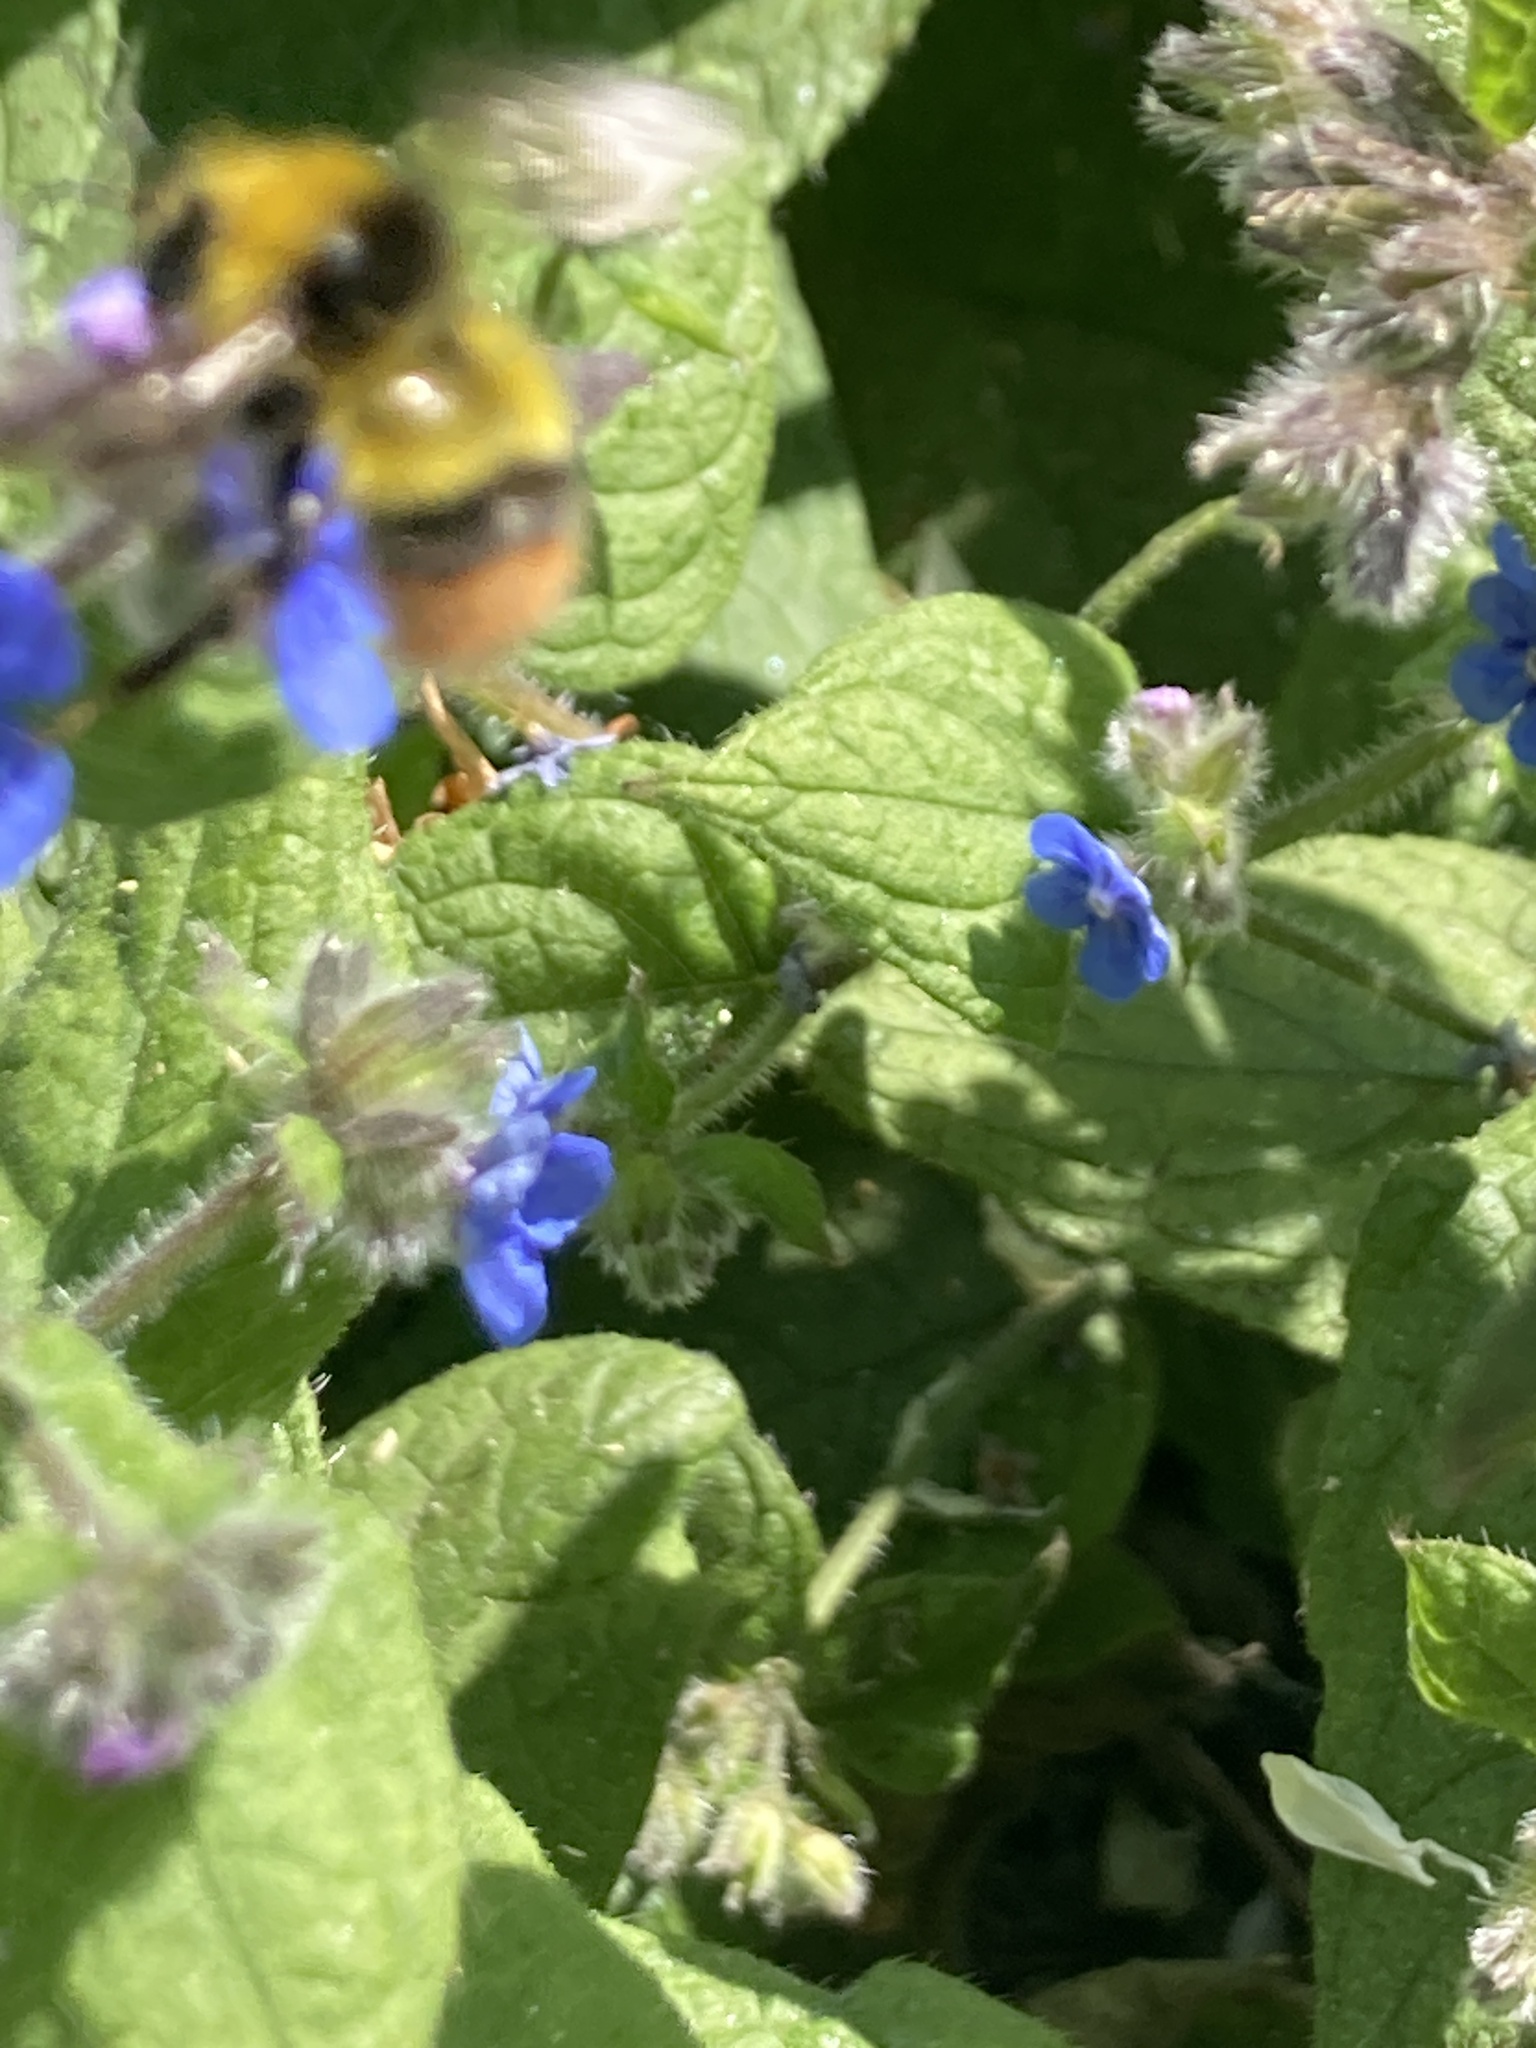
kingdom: Animalia
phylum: Arthropoda
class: Insecta
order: Hymenoptera
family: Apidae
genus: Bombus
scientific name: Bombus pratorum
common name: Early humble-bee
